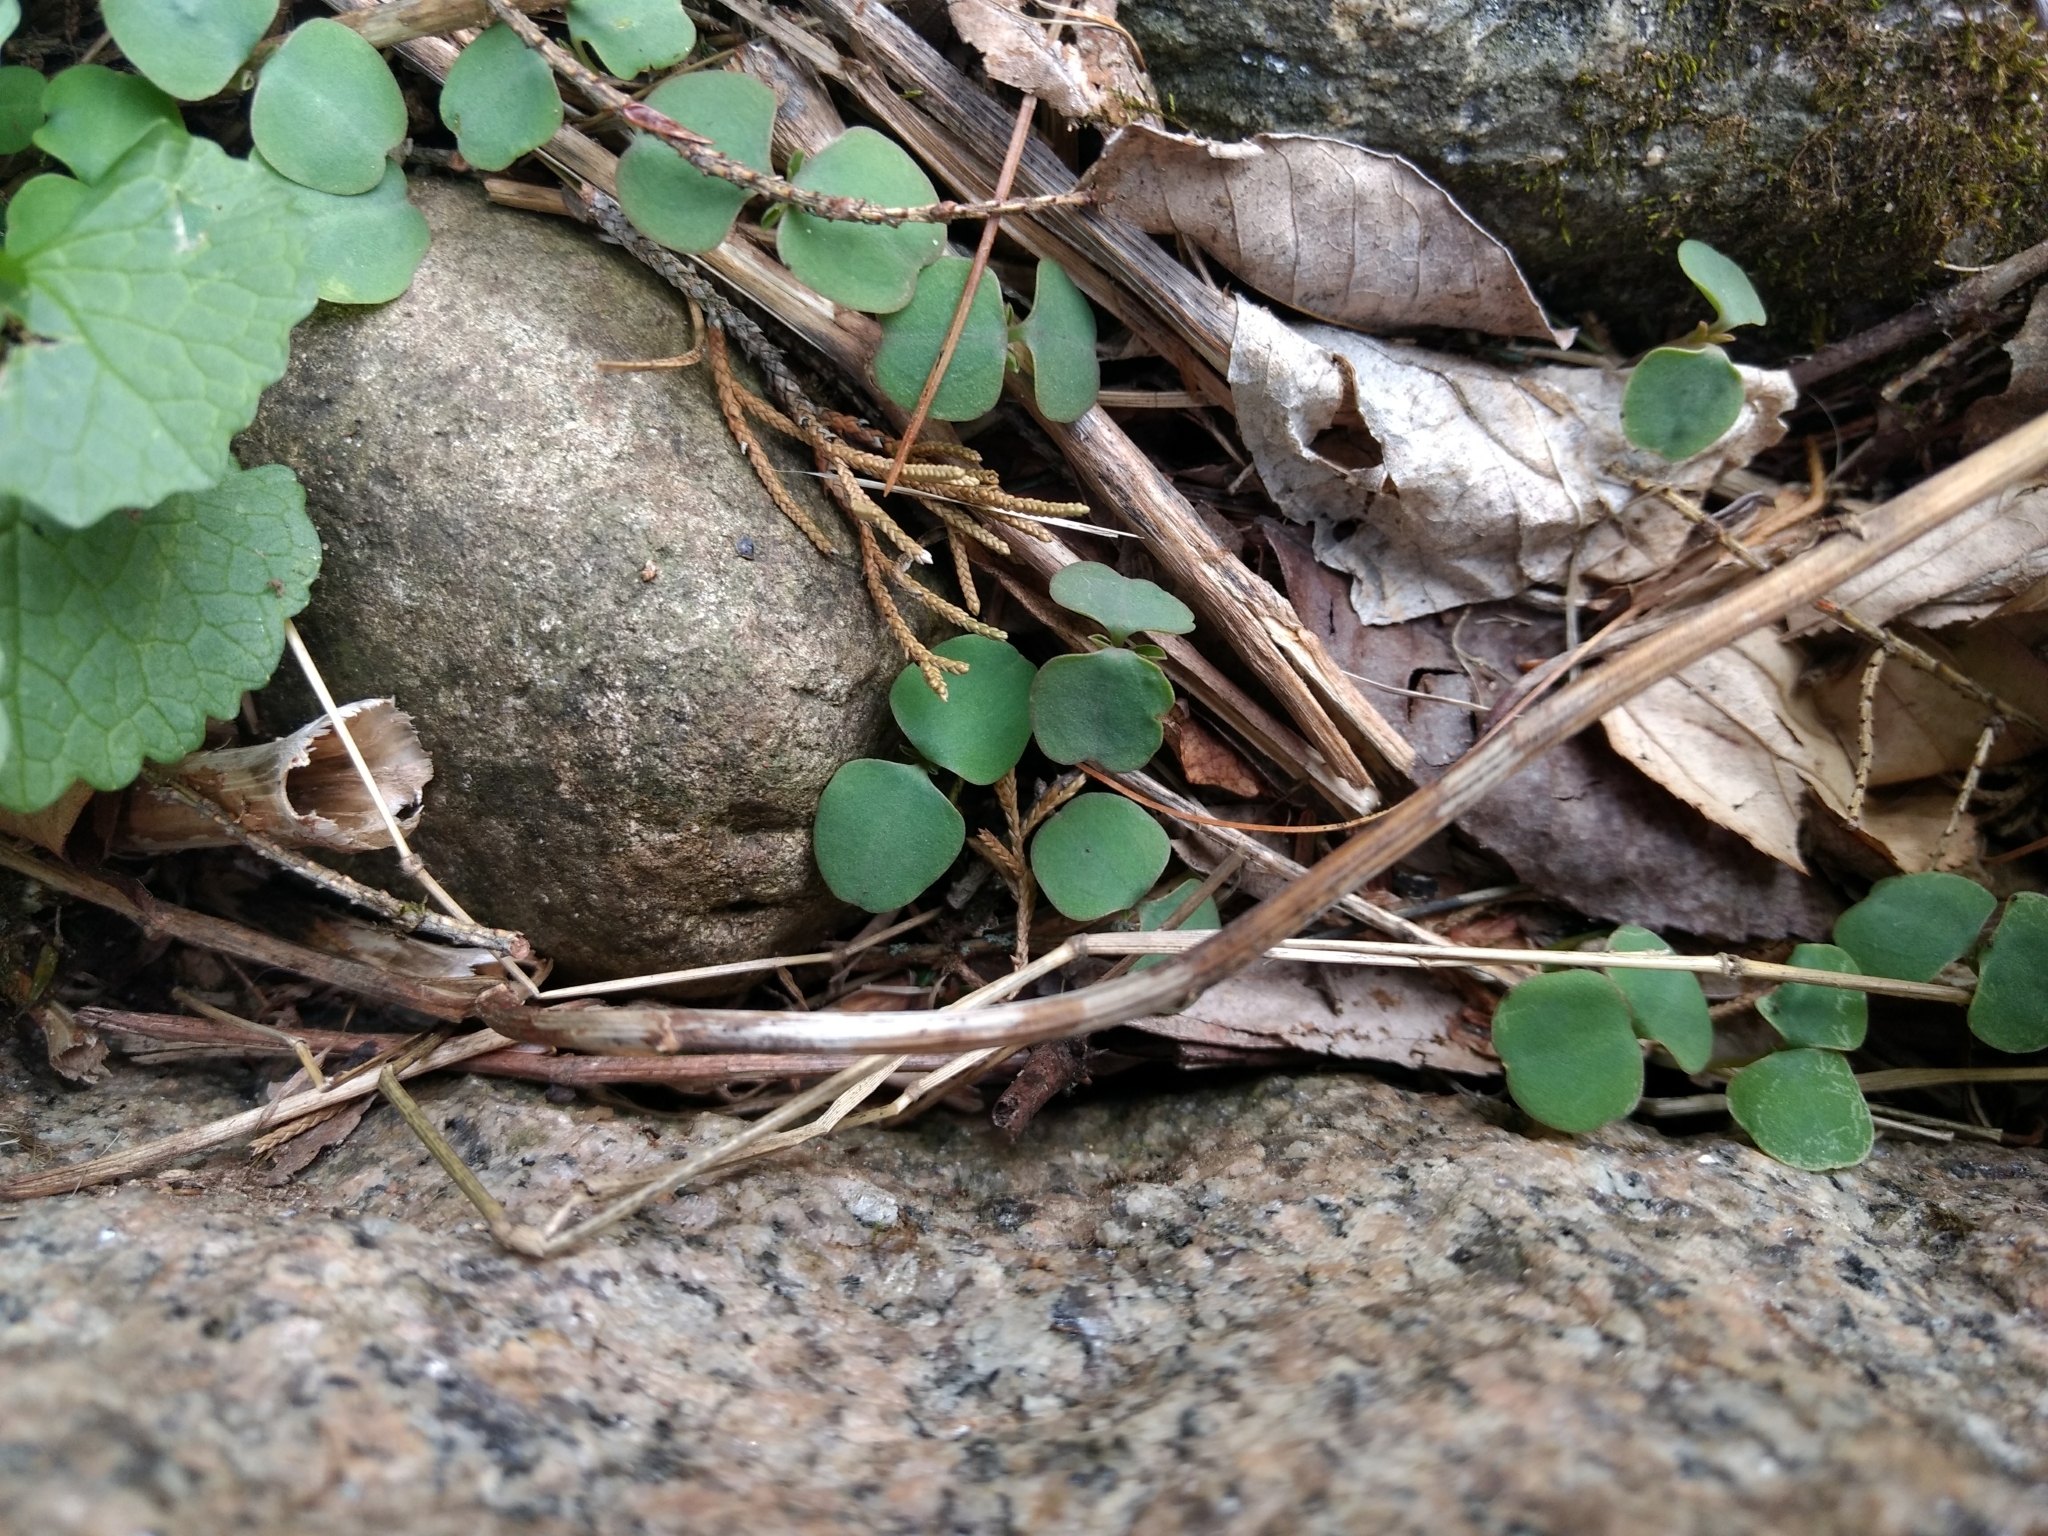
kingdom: Plantae
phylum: Tracheophyta
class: Magnoliopsida
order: Ericales
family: Balsaminaceae
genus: Impatiens
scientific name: Impatiens
